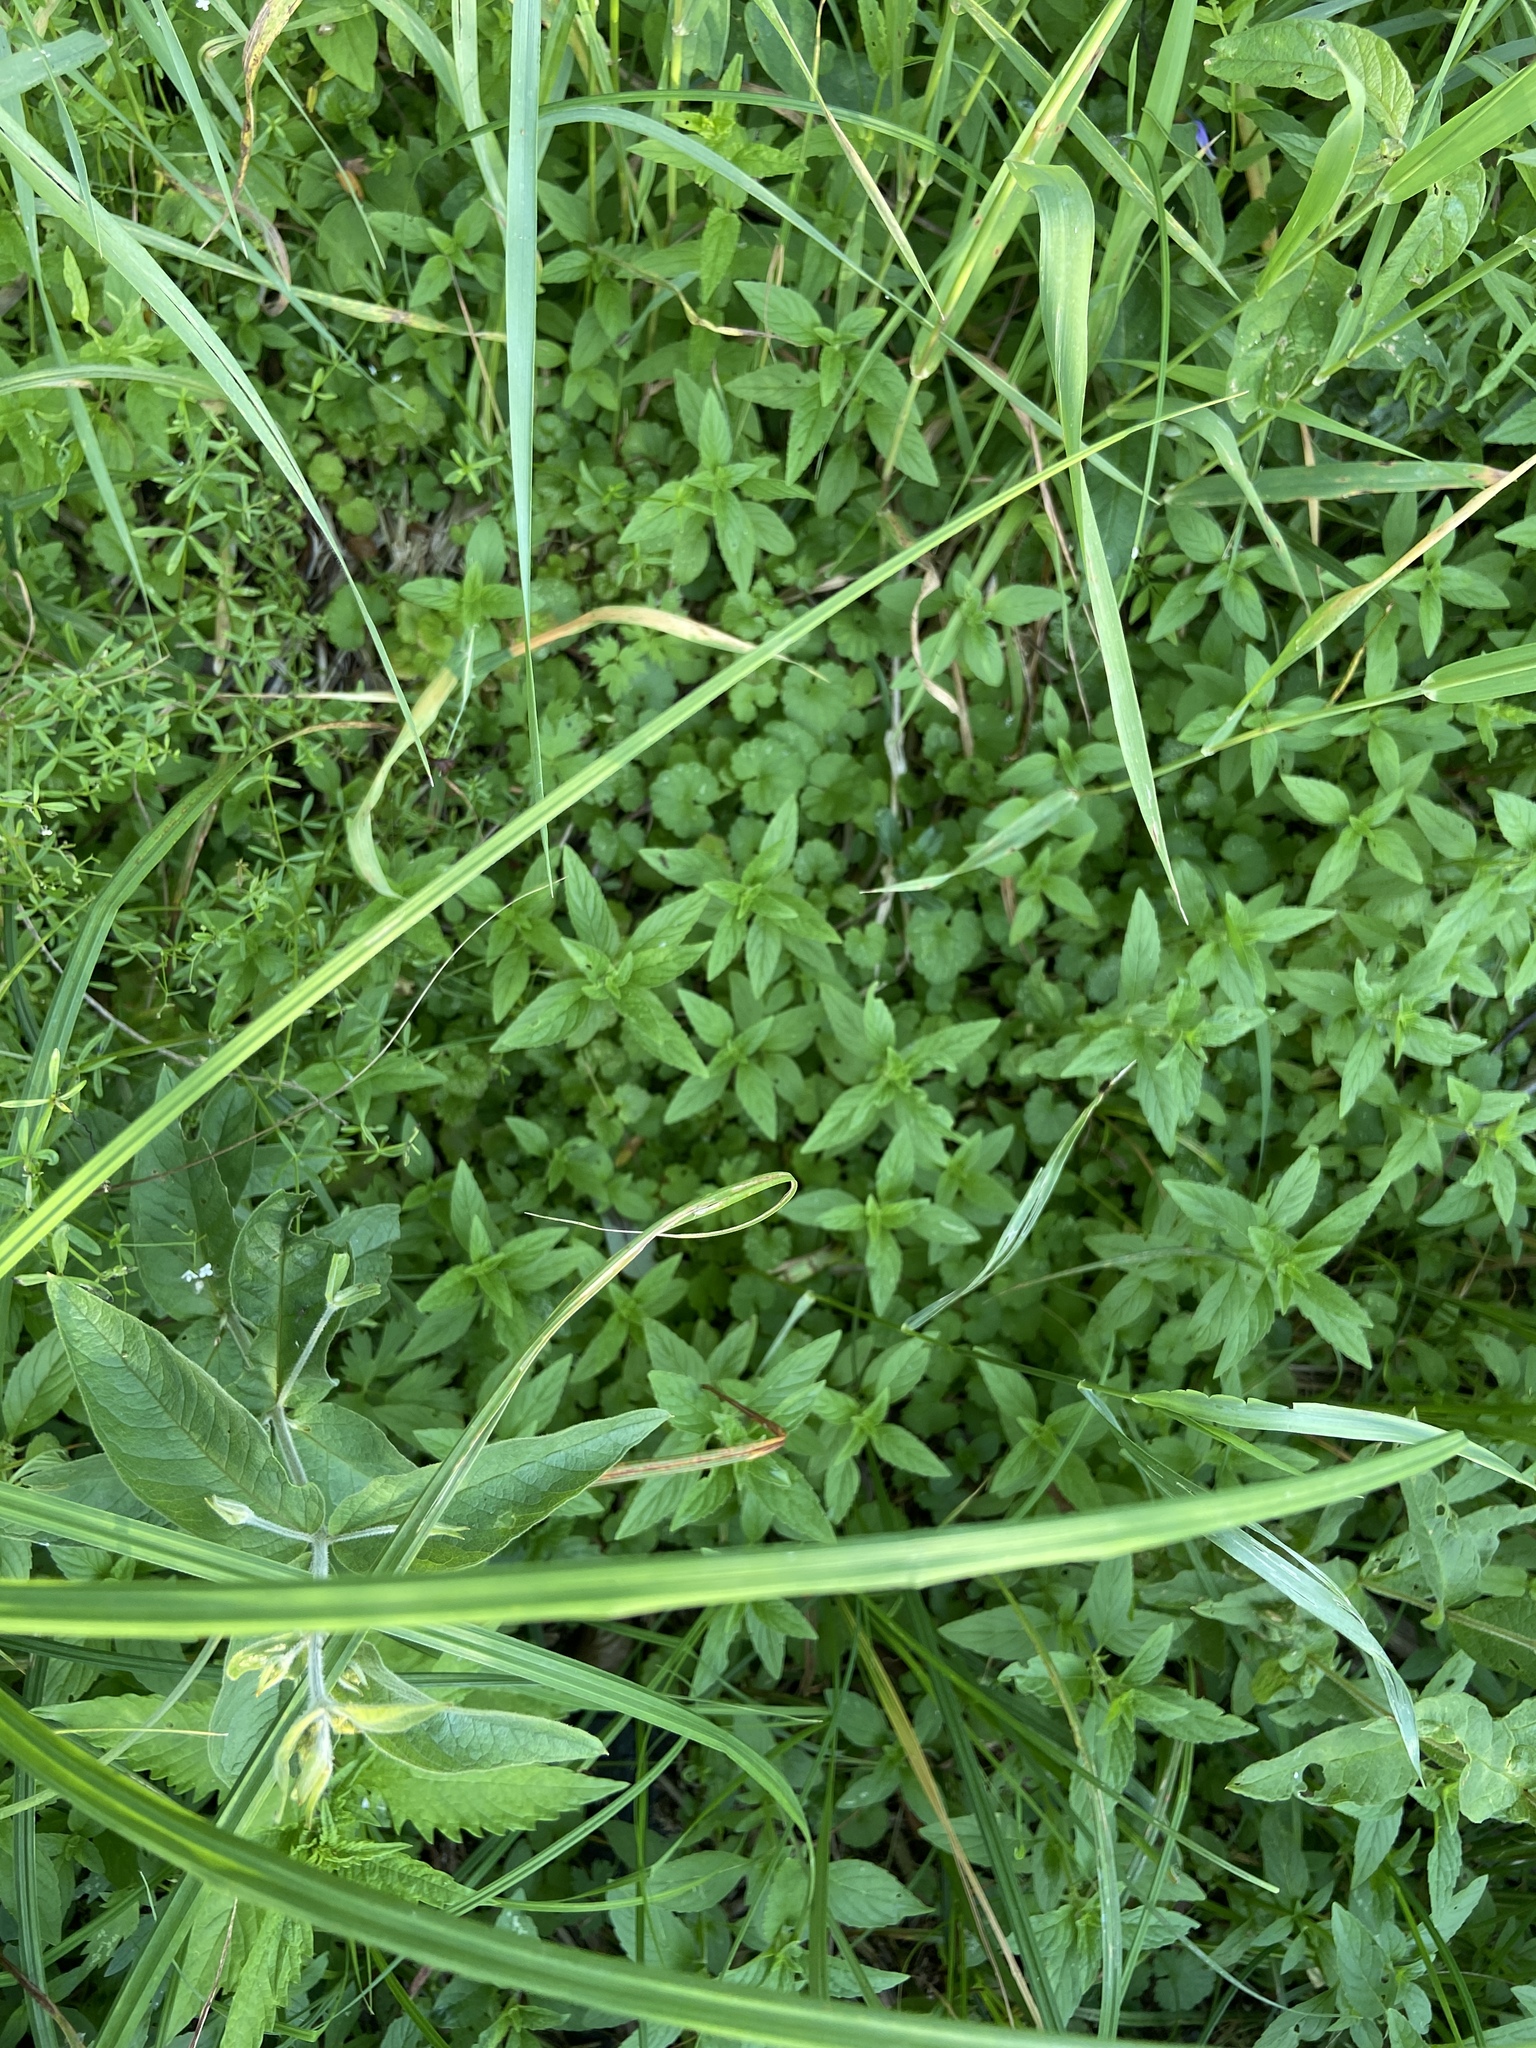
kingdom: Plantae
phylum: Tracheophyta
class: Magnoliopsida
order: Lamiales
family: Lamiaceae
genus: Mentha
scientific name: Mentha arvensis
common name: Corn mint
